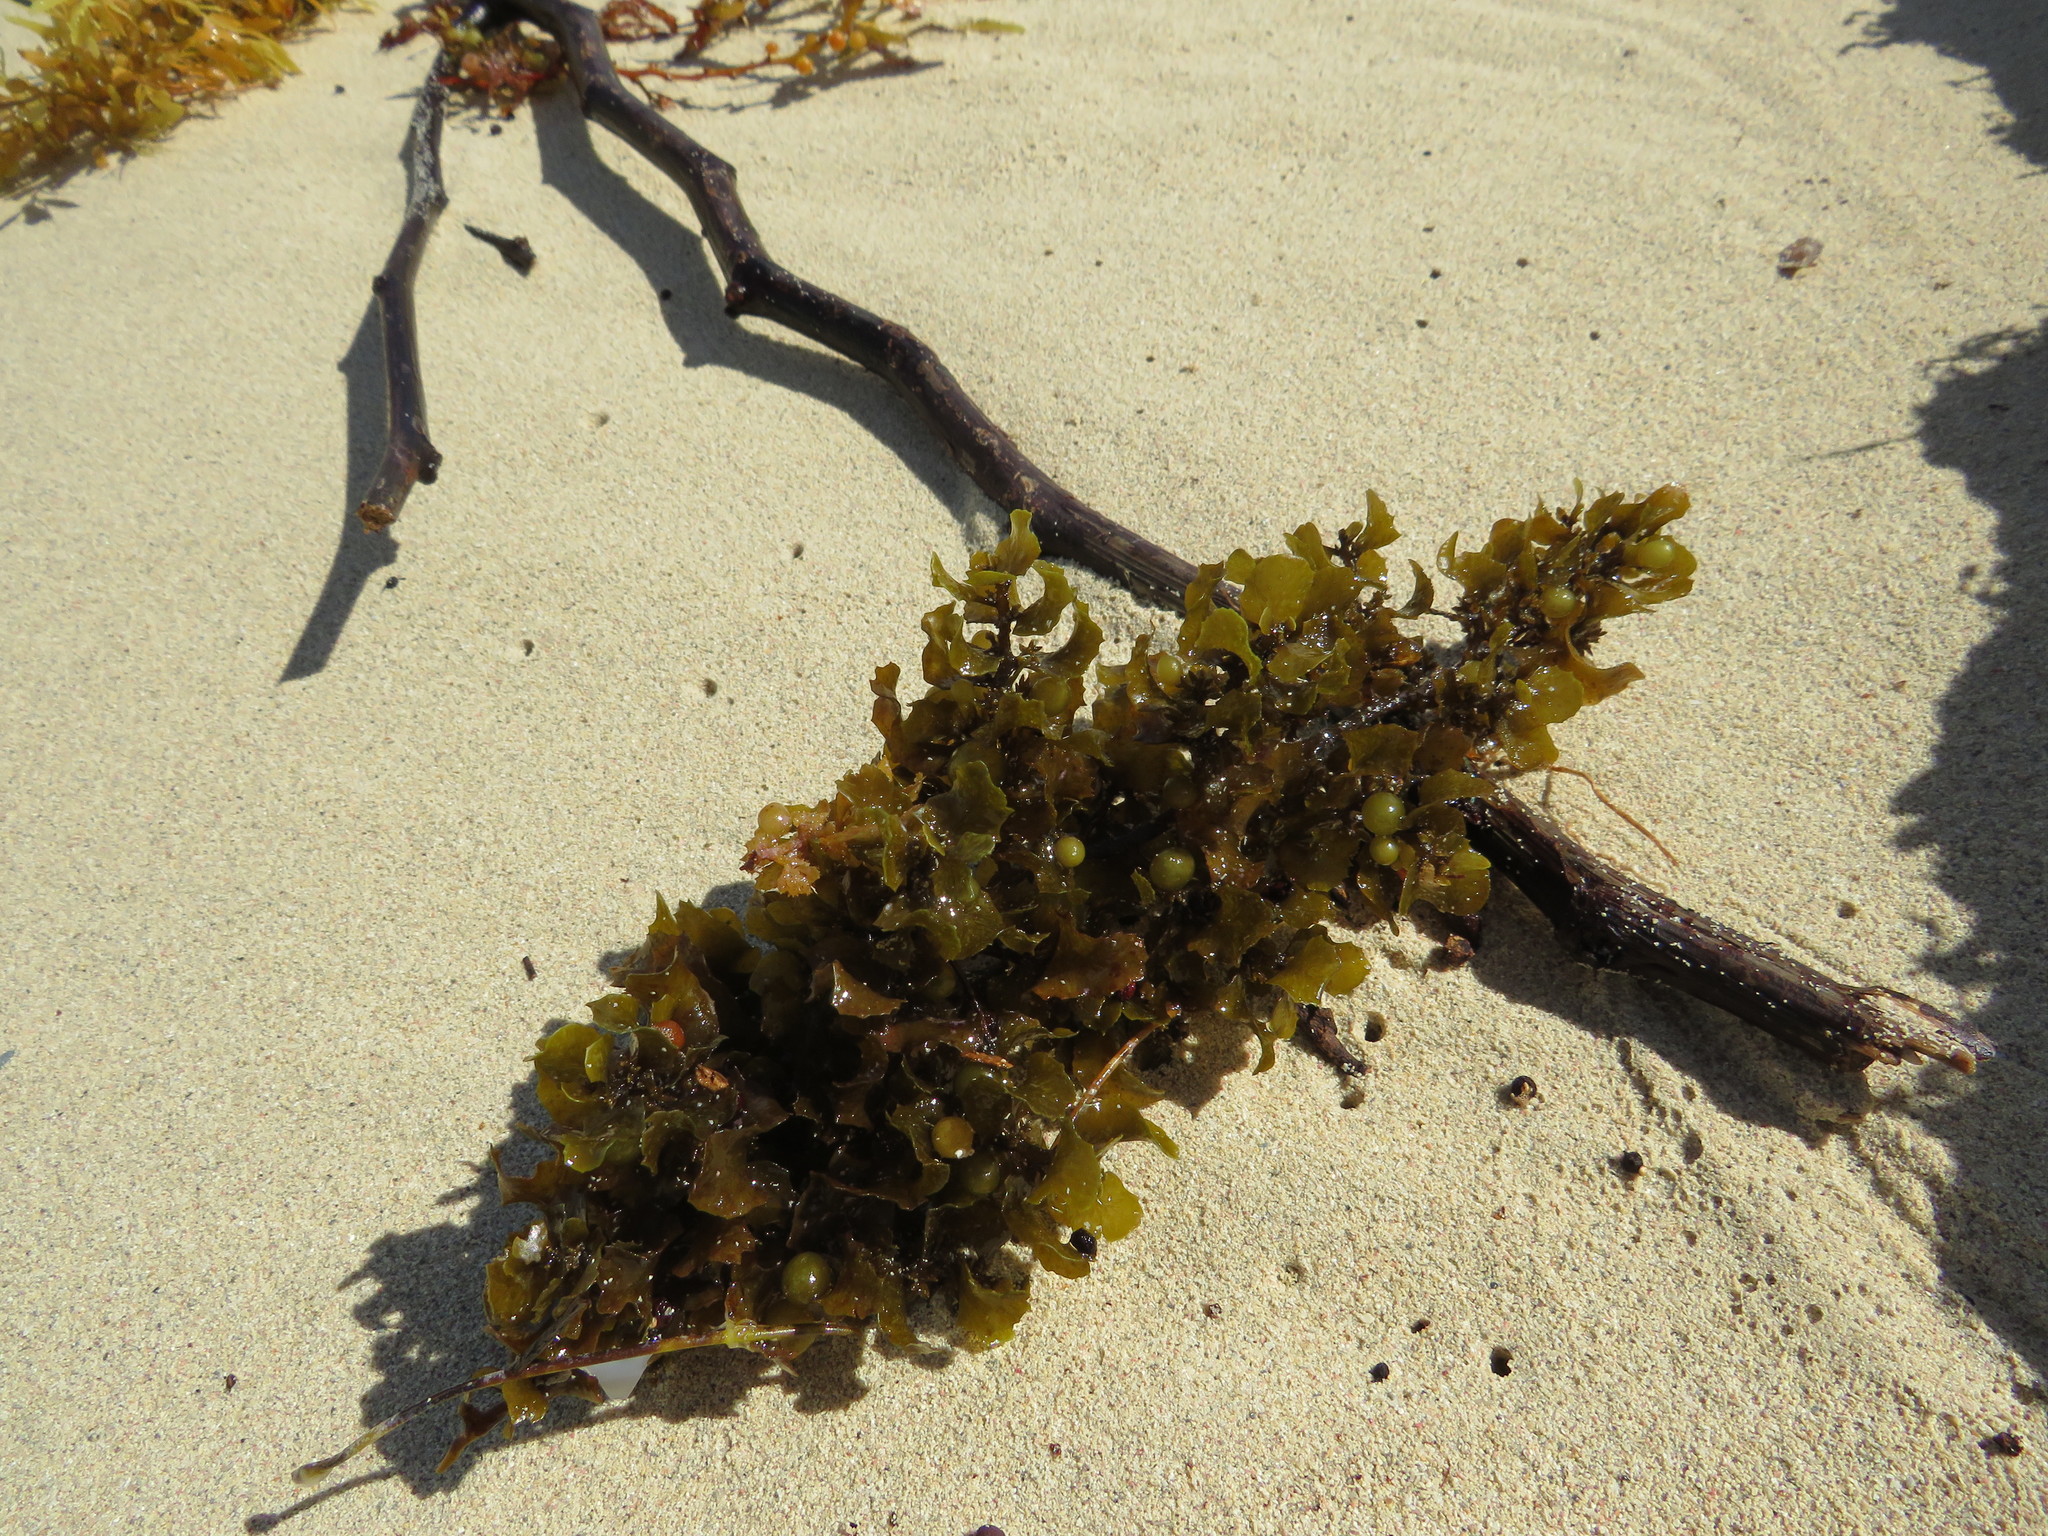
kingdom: Chromista
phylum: Ochrophyta
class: Phaeophyceae
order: Fucales
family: Sargassaceae
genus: Sargassum
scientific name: Sargassum fluitans
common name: Sargassum seaweed
